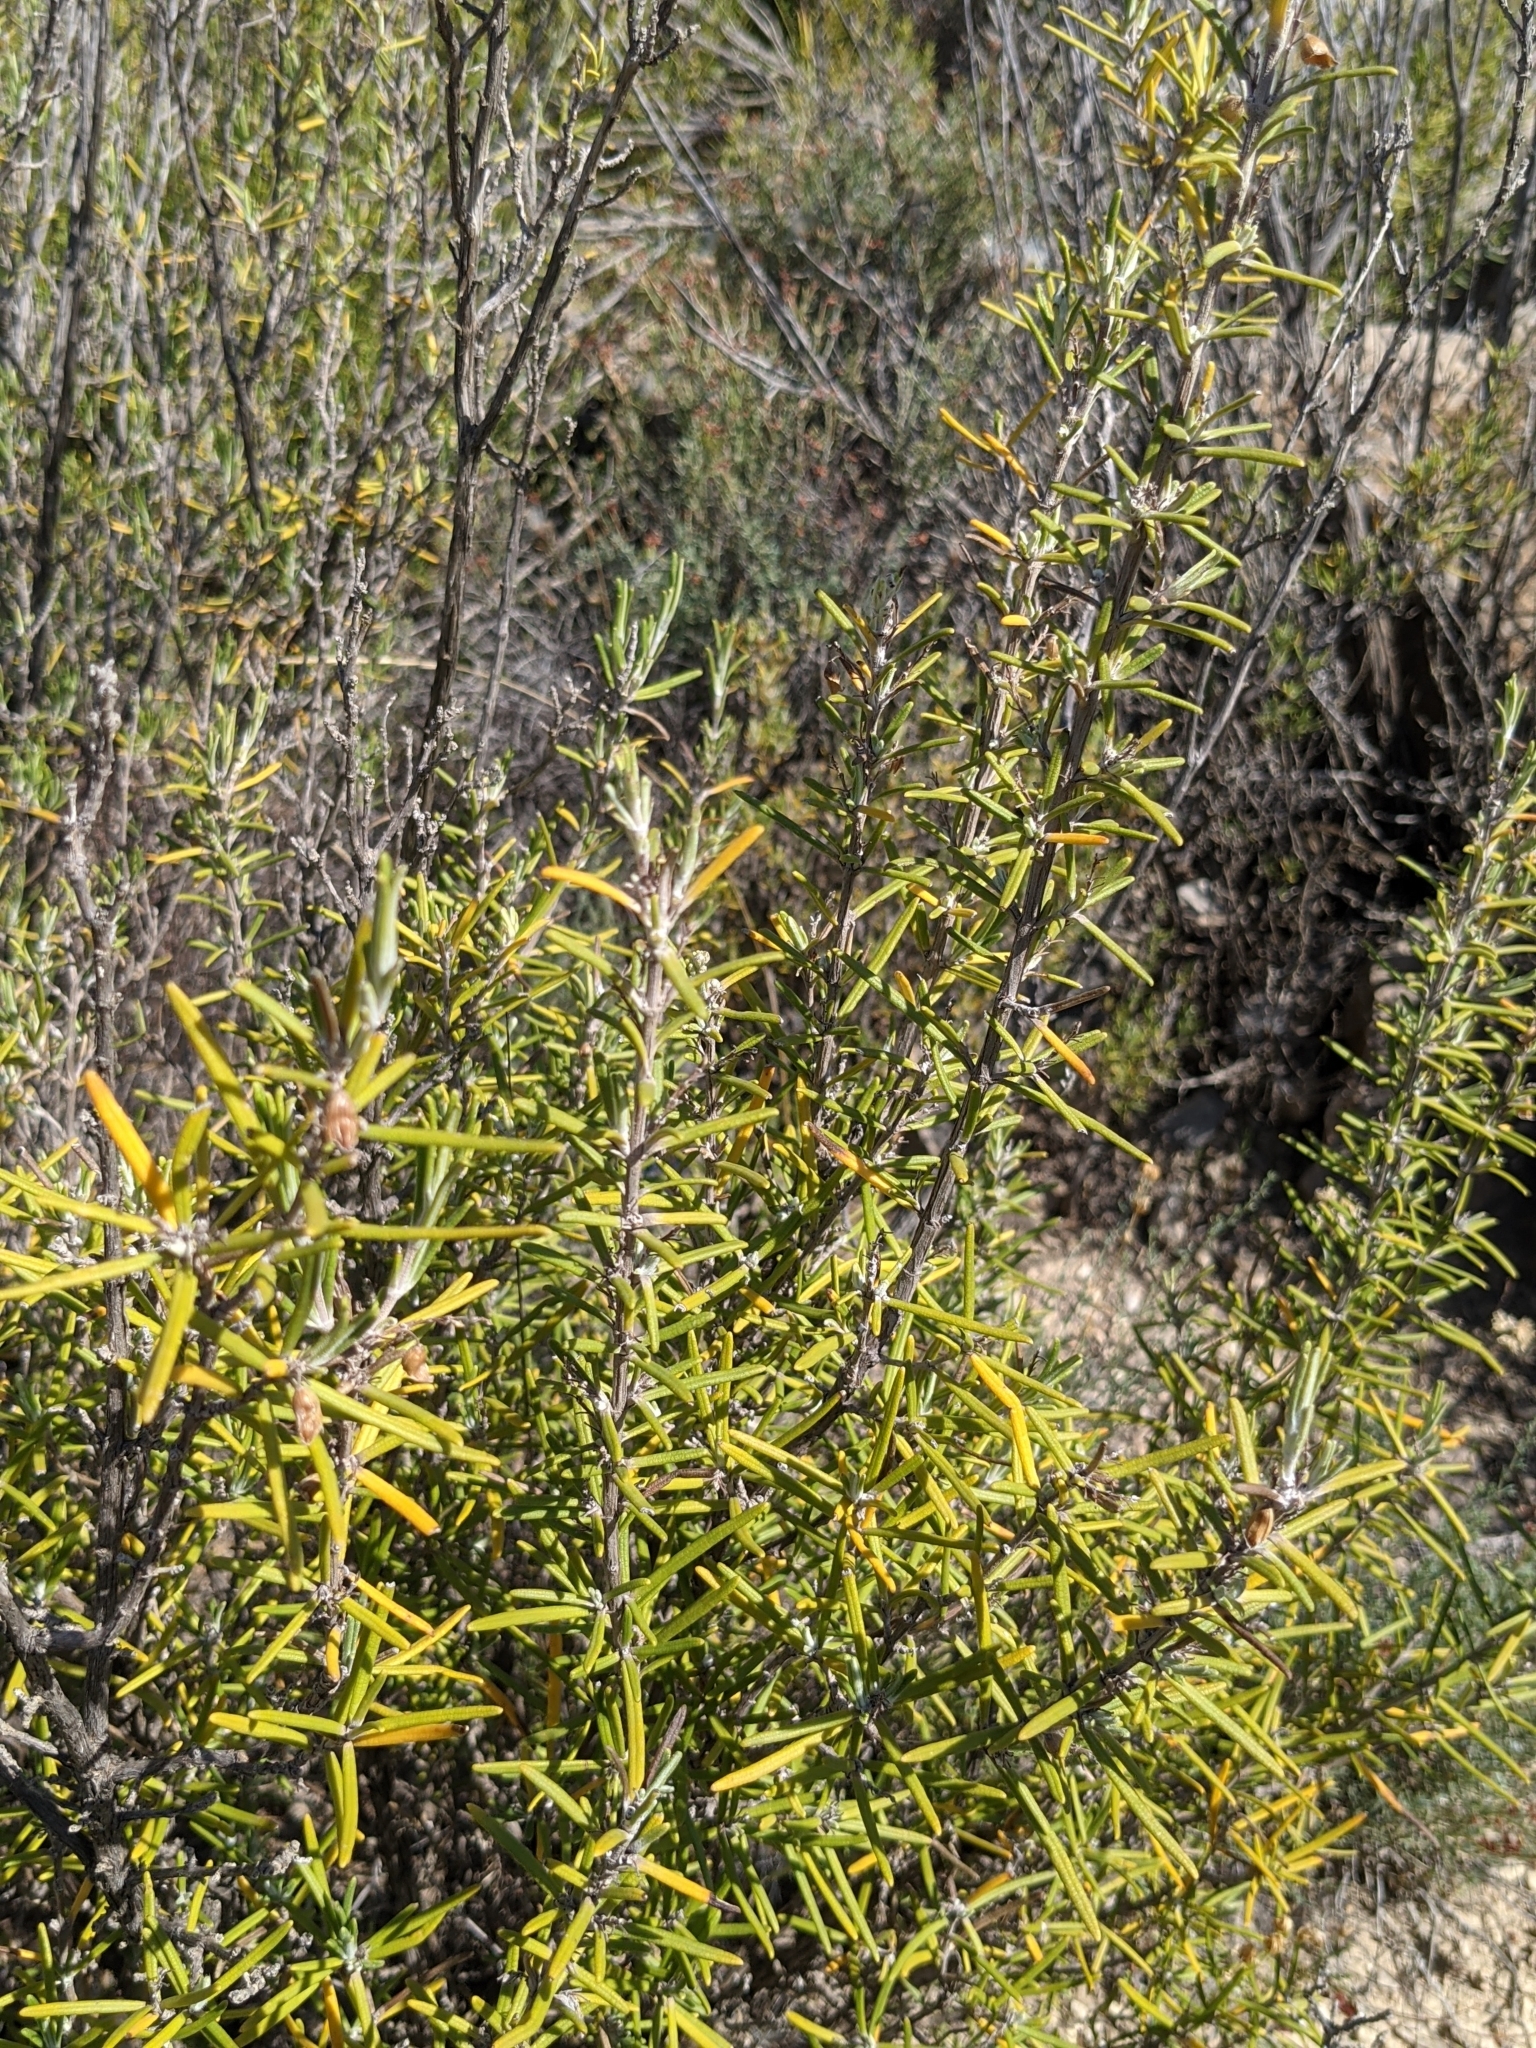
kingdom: Plantae
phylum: Tracheophyta
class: Magnoliopsida
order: Lamiales
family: Lamiaceae
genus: Salvia
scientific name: Salvia rosmarinus
